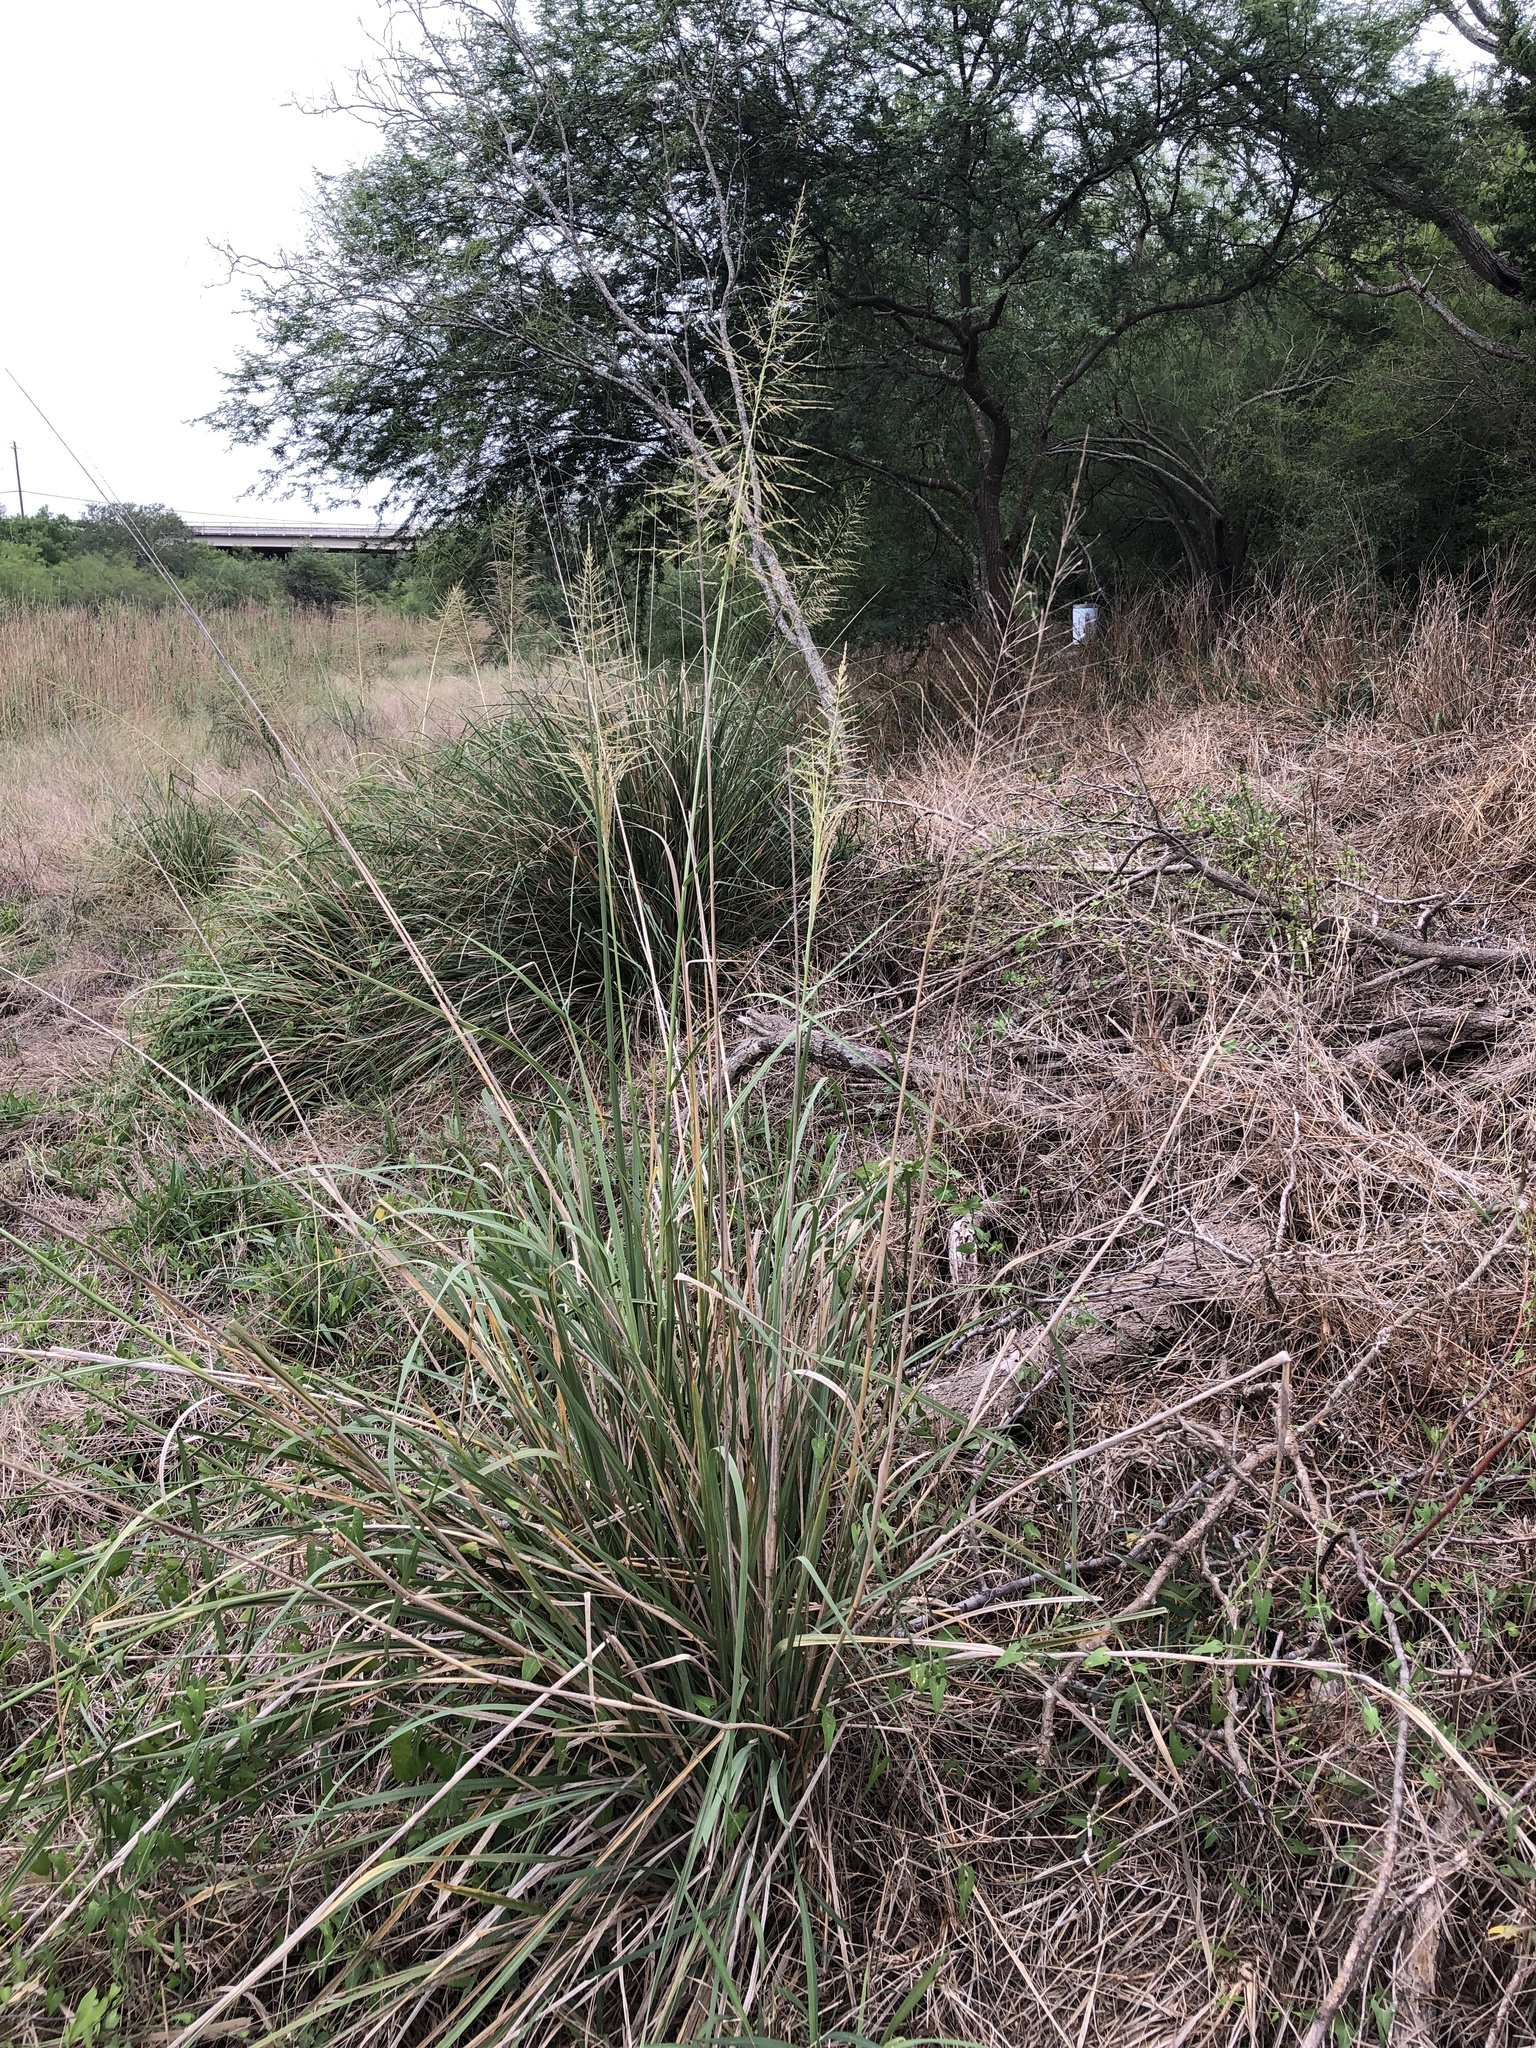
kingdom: Plantae
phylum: Tracheophyta
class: Liliopsida
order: Poales
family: Poaceae
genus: Sporobolus
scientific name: Sporobolus wrightii
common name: Big alkali sacaton
